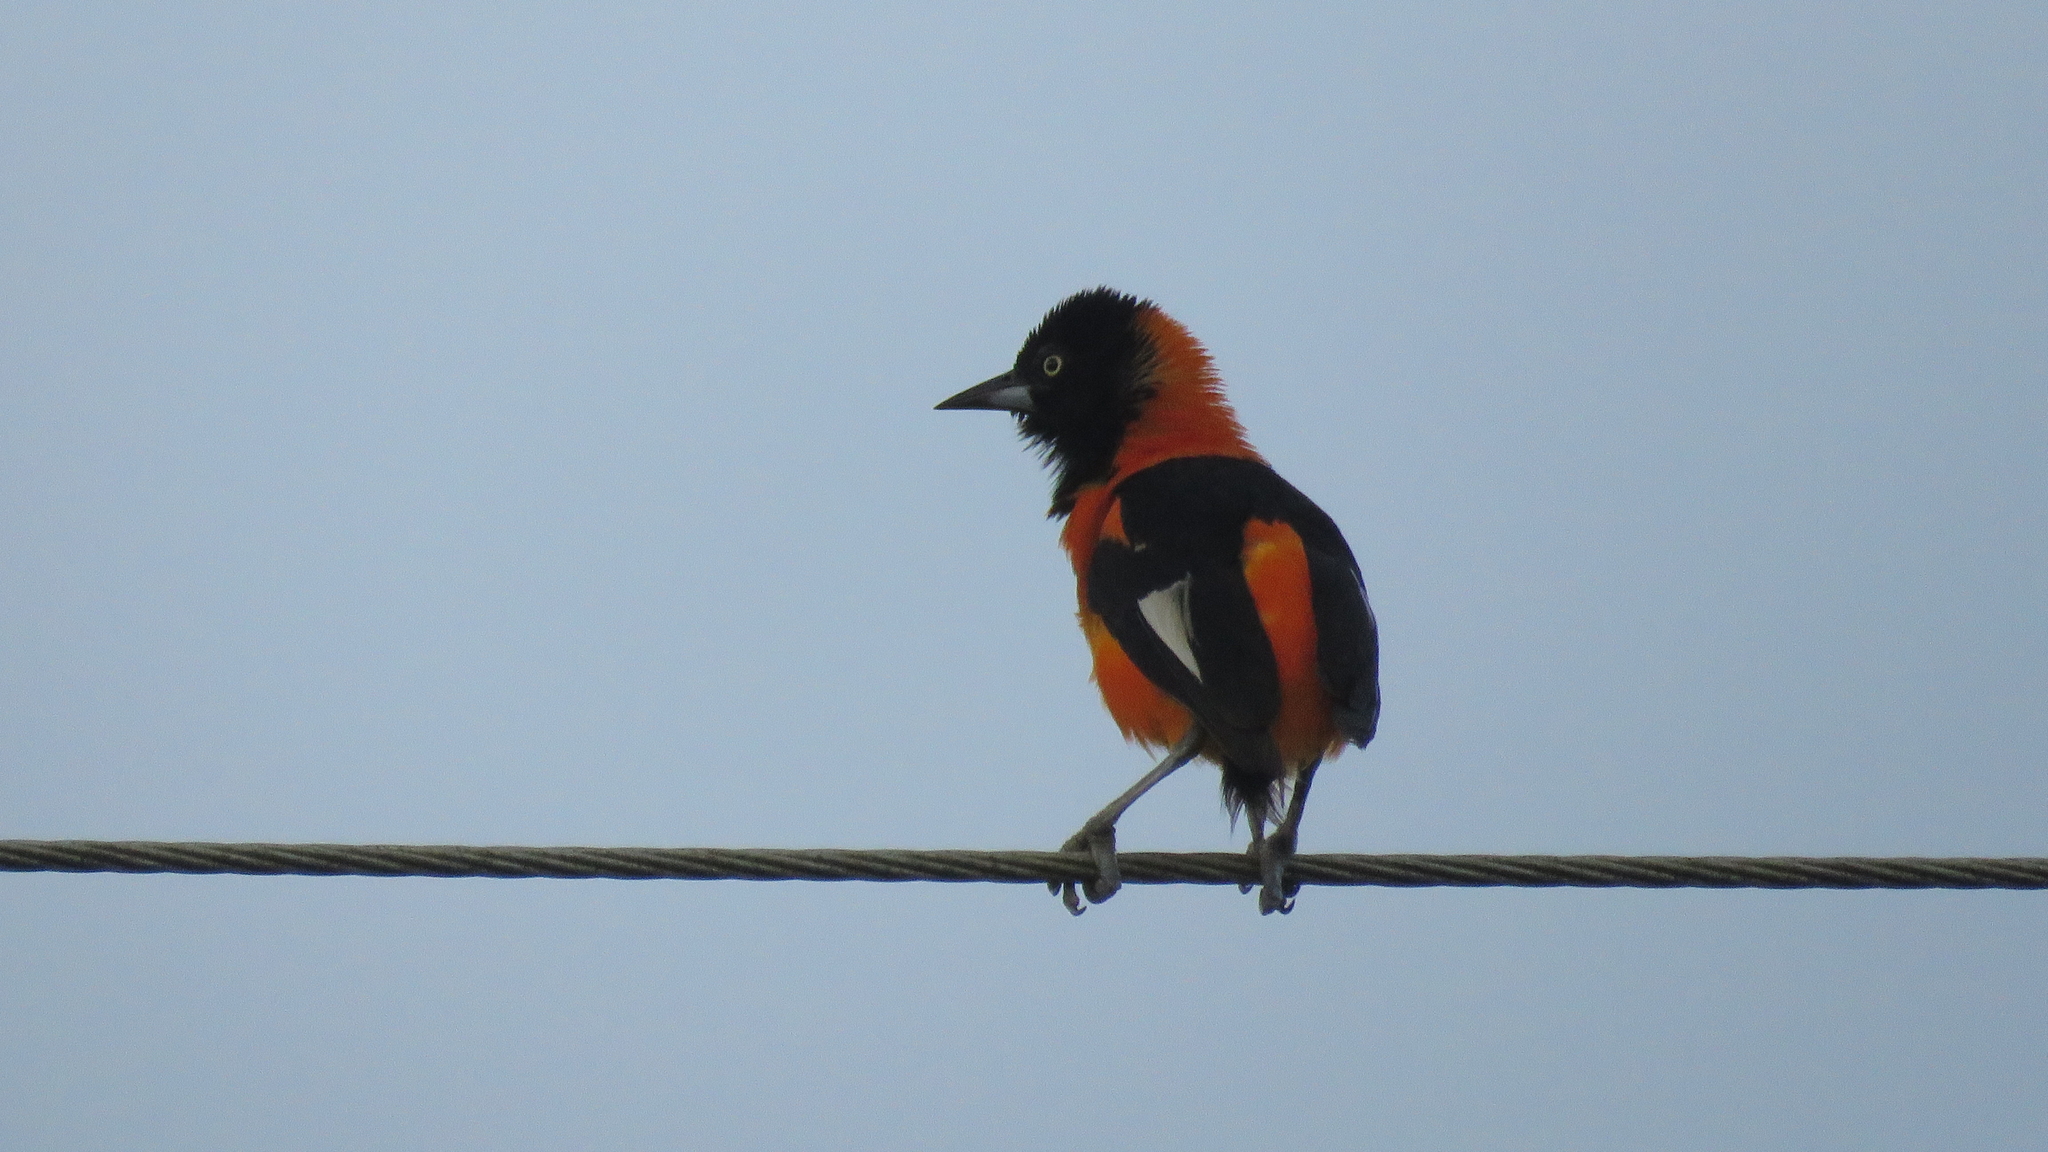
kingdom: Animalia
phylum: Chordata
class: Aves
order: Passeriformes
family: Icteridae
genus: Icterus
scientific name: Icterus icterus
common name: Venezuelan troupial
